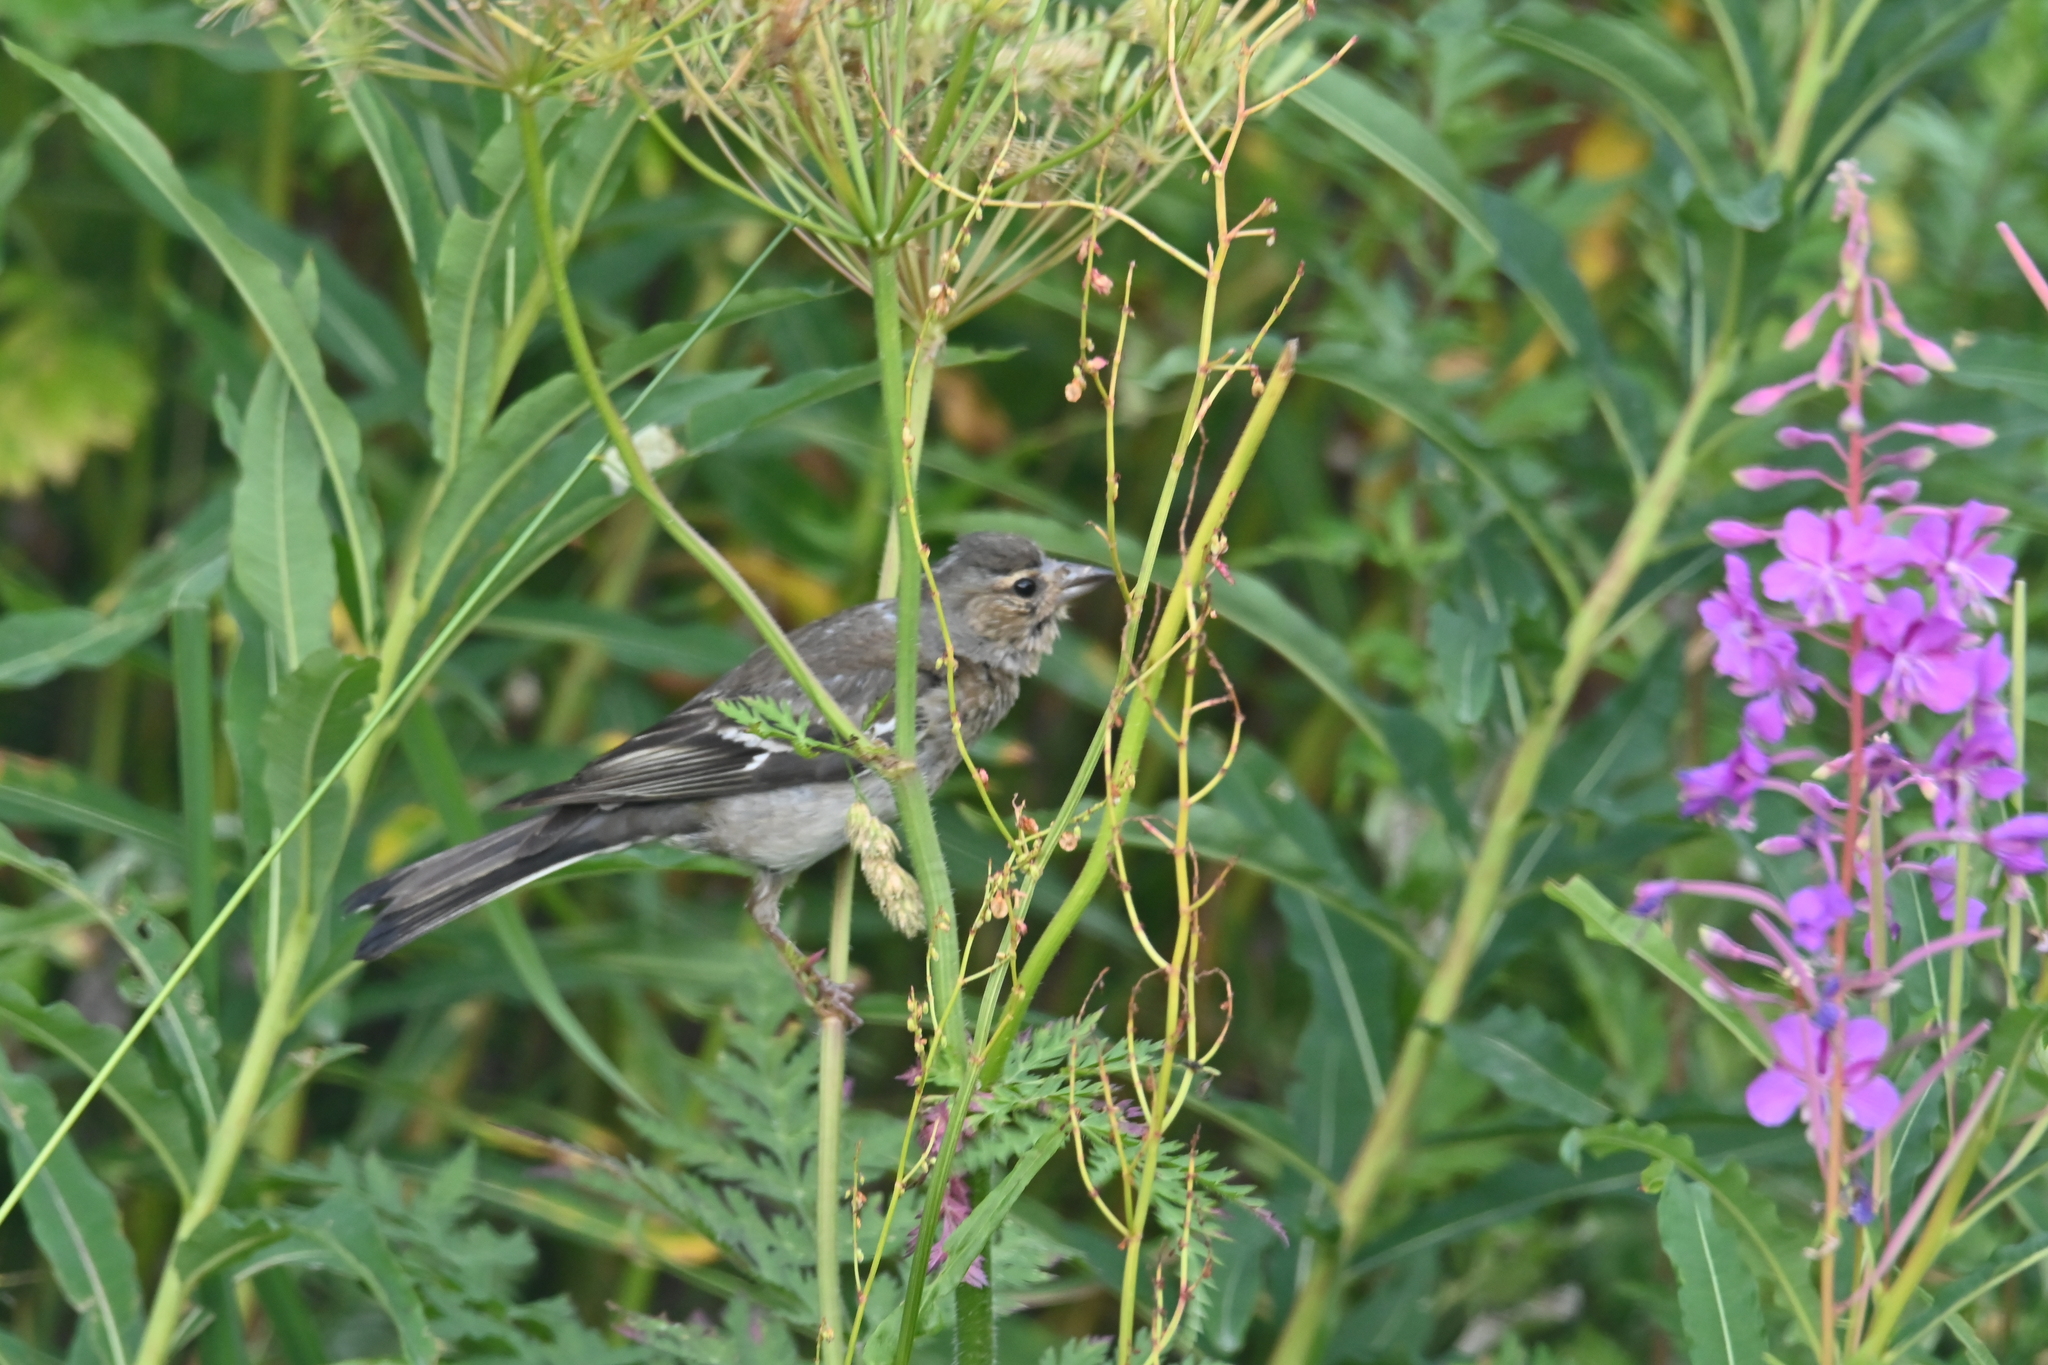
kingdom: Animalia
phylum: Chordata
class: Aves
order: Passeriformes
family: Fringillidae
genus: Fringilla
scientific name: Fringilla coelebs
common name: Common chaffinch
